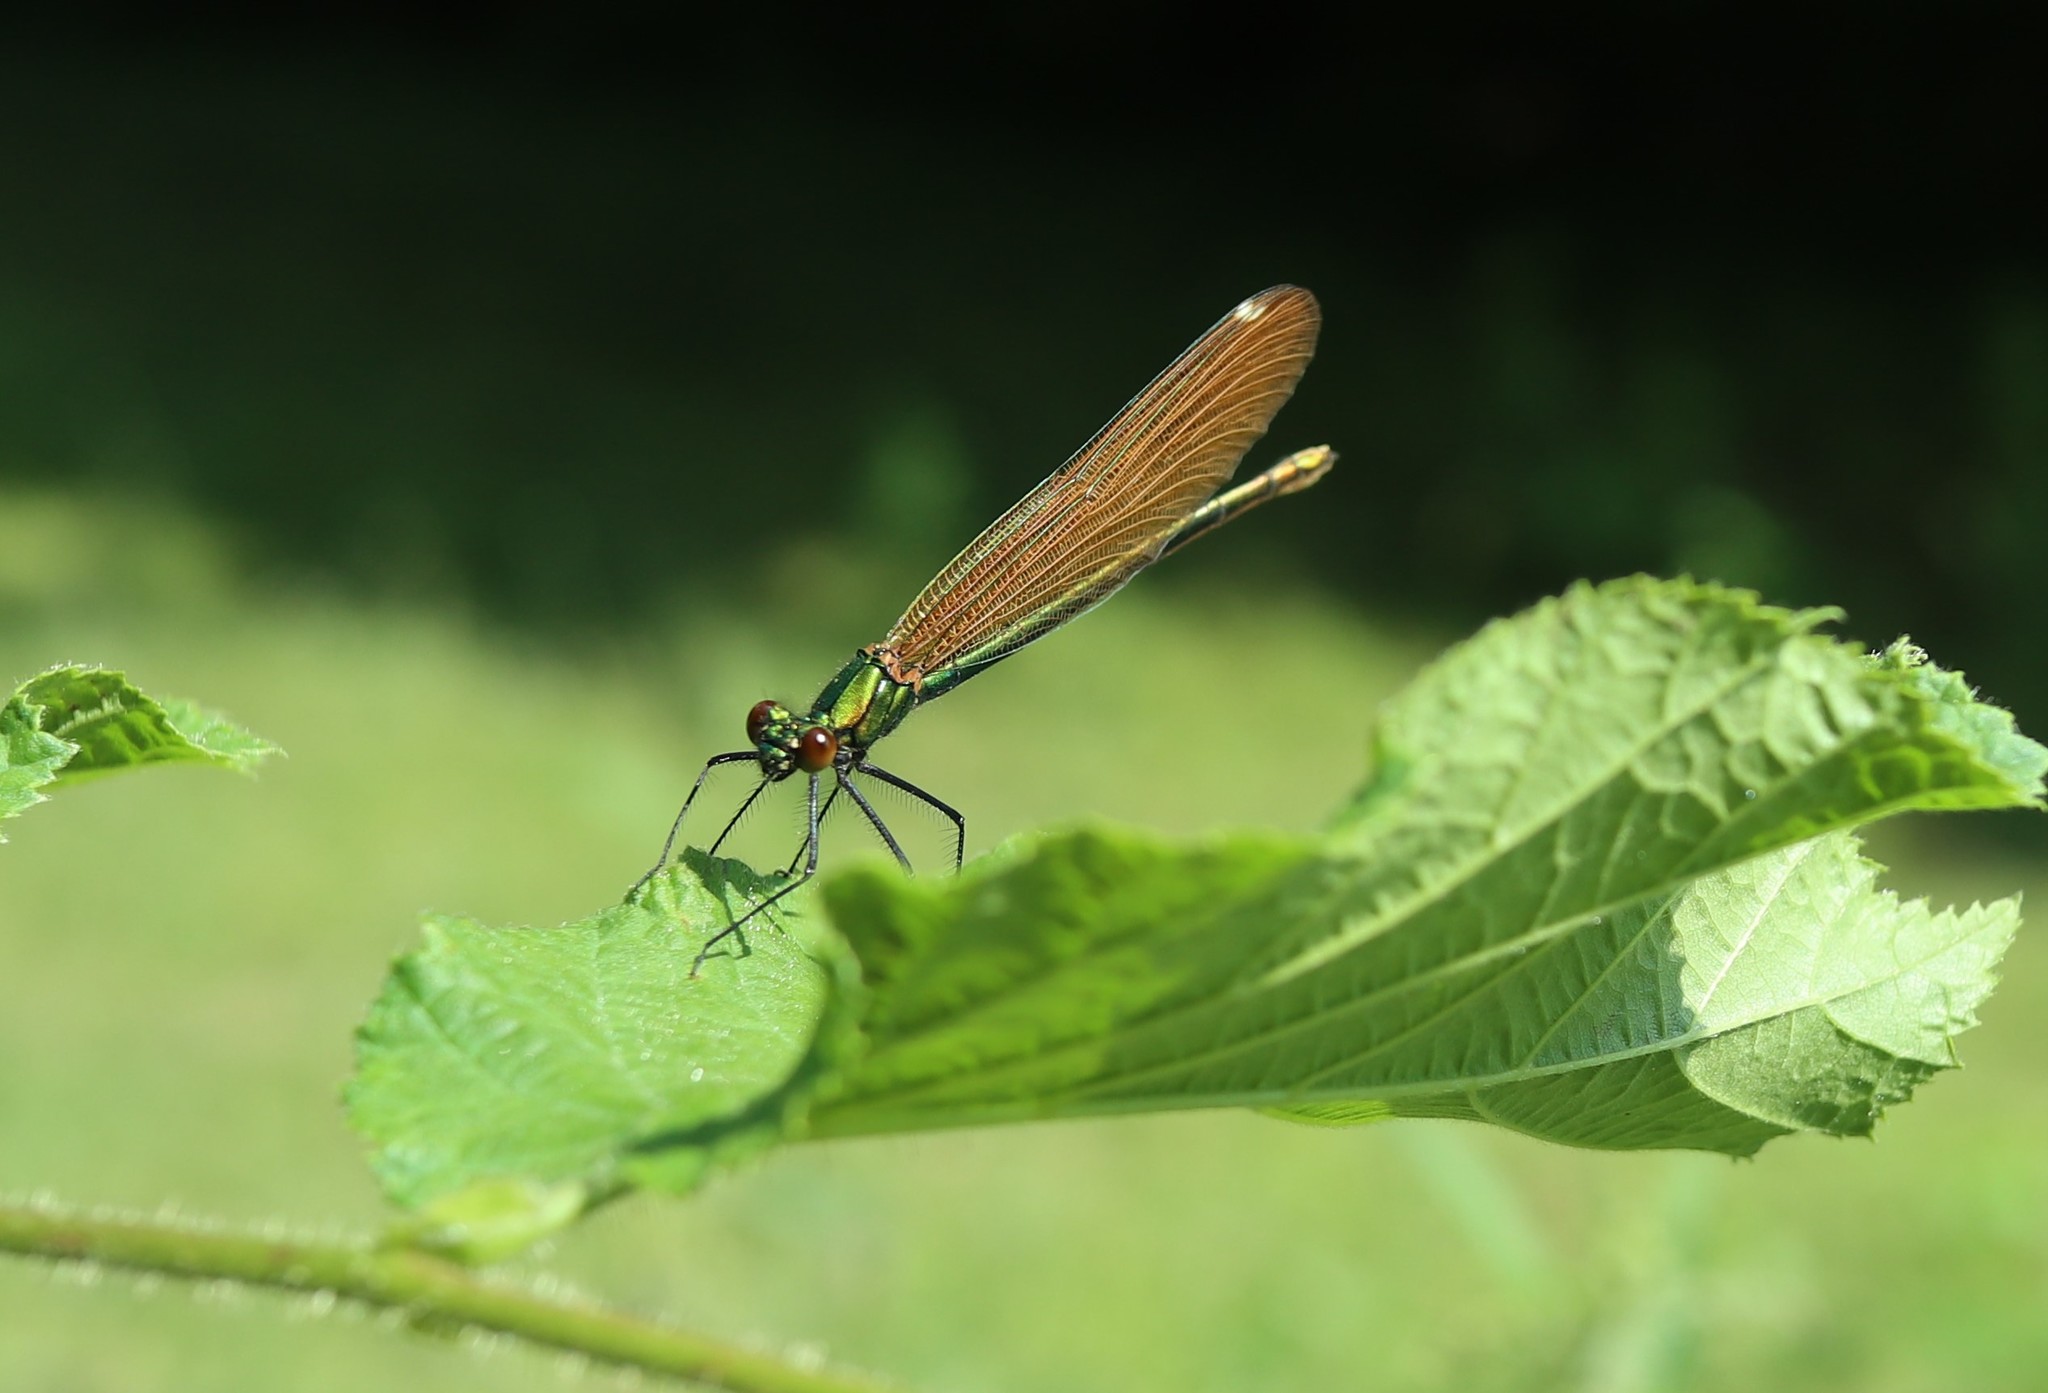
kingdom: Animalia
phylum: Arthropoda
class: Insecta
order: Odonata
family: Calopterygidae
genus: Calopteryx
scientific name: Calopteryx virgo
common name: Beautiful demoiselle
